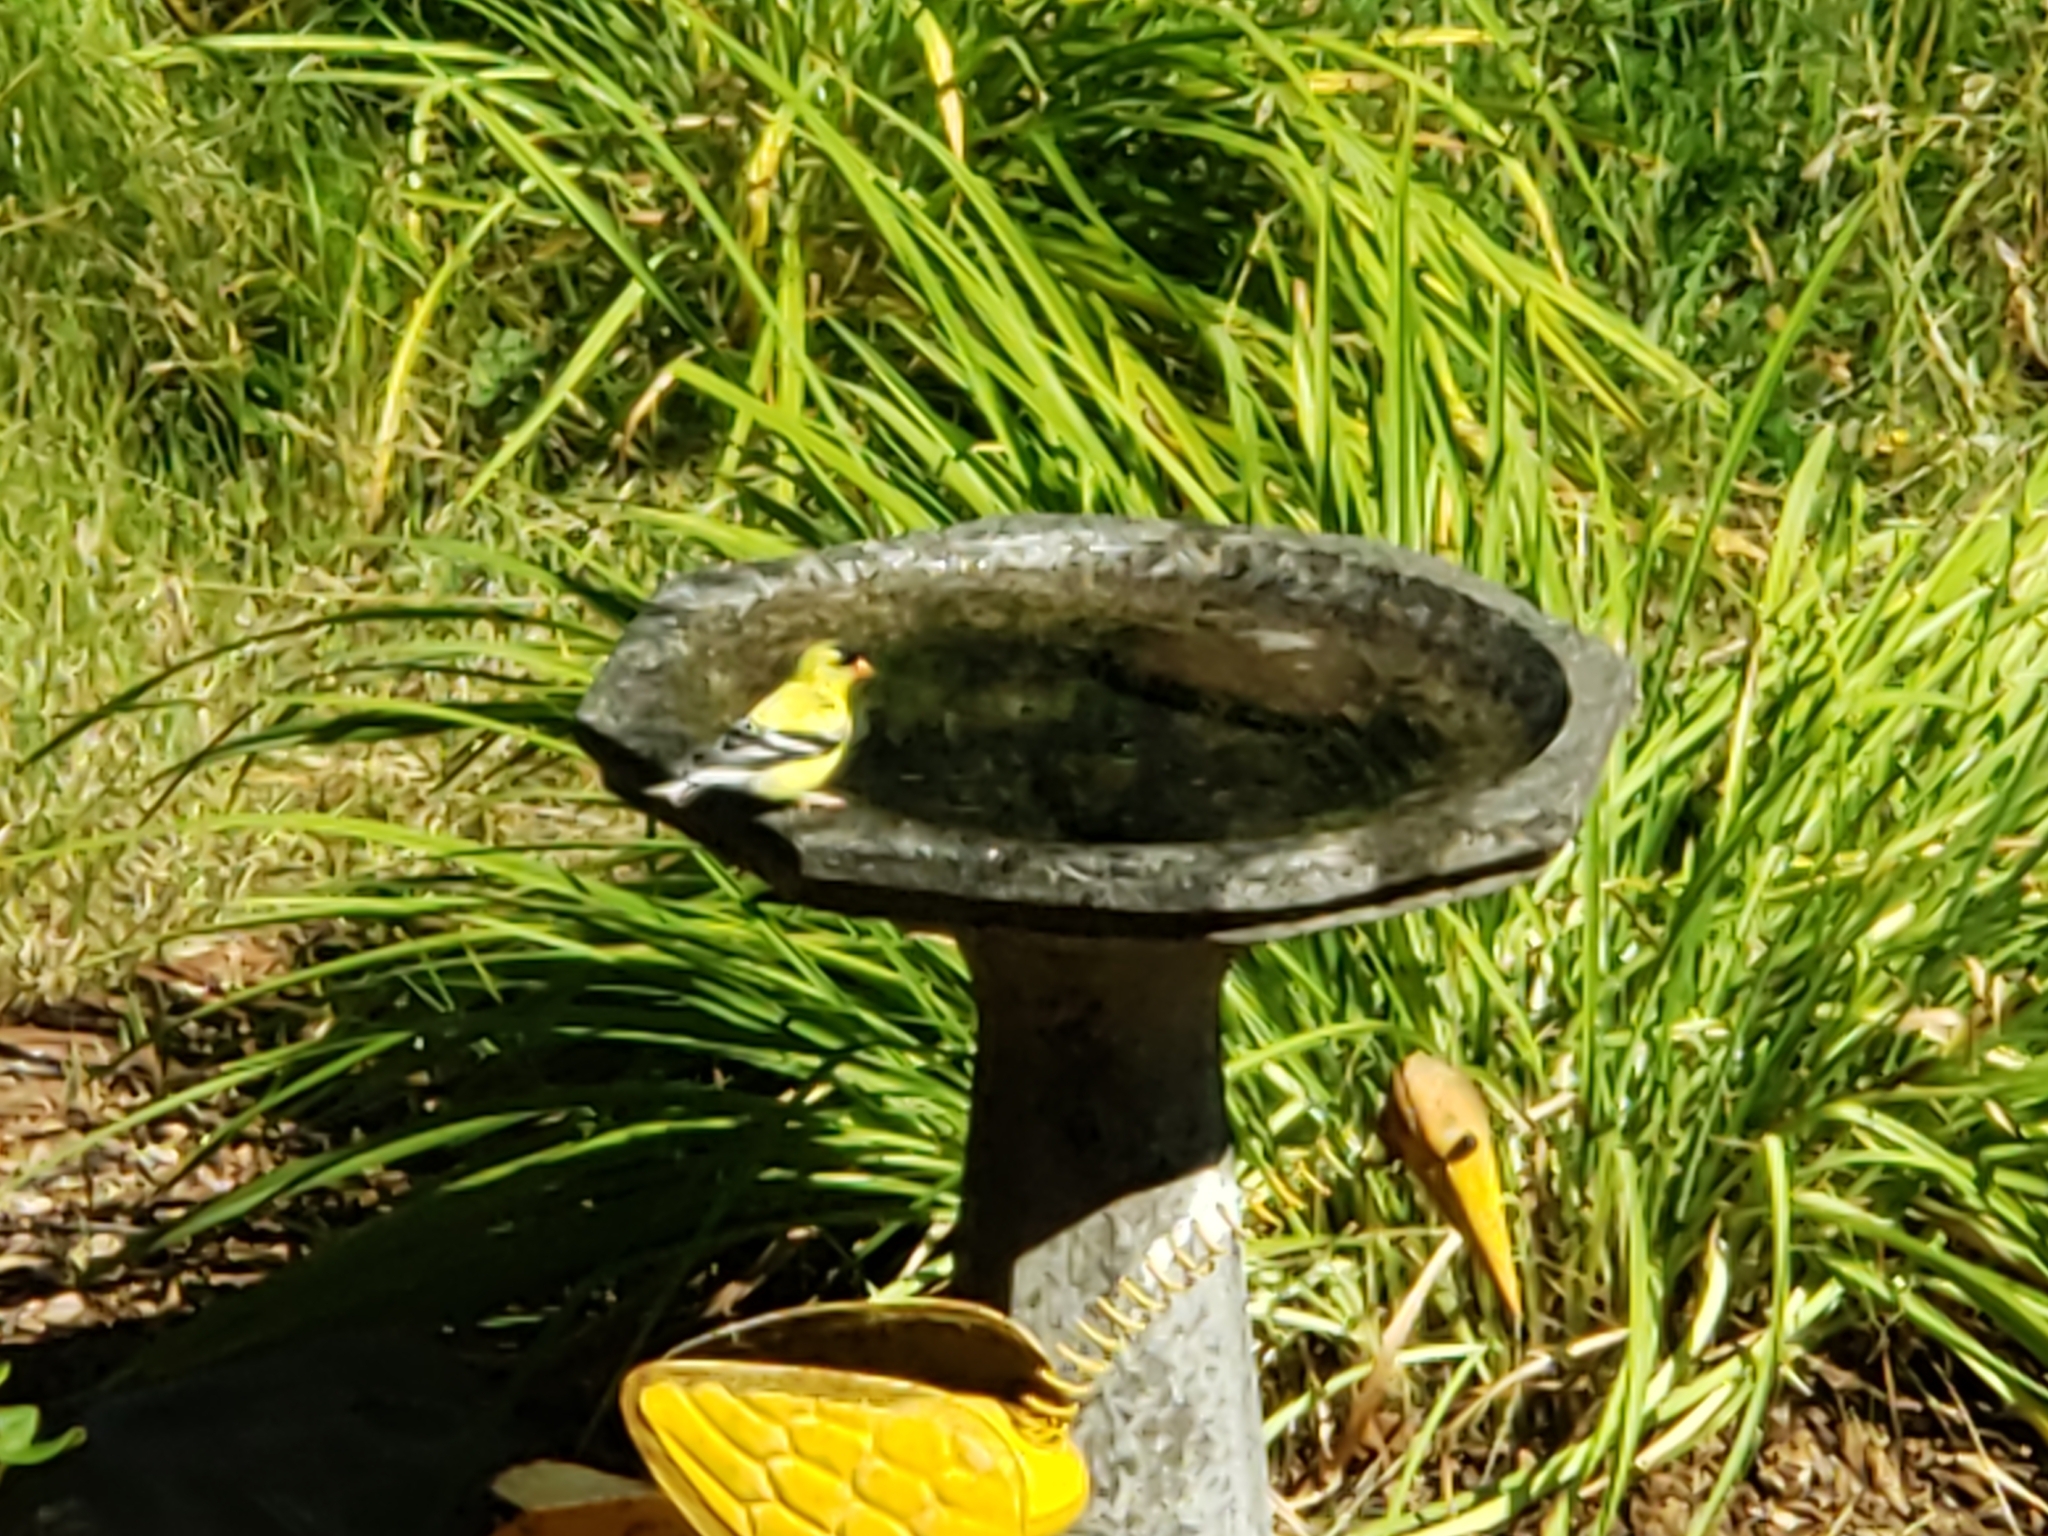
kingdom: Animalia
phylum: Chordata
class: Aves
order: Passeriformes
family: Fringillidae
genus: Spinus
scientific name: Spinus tristis
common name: American goldfinch
